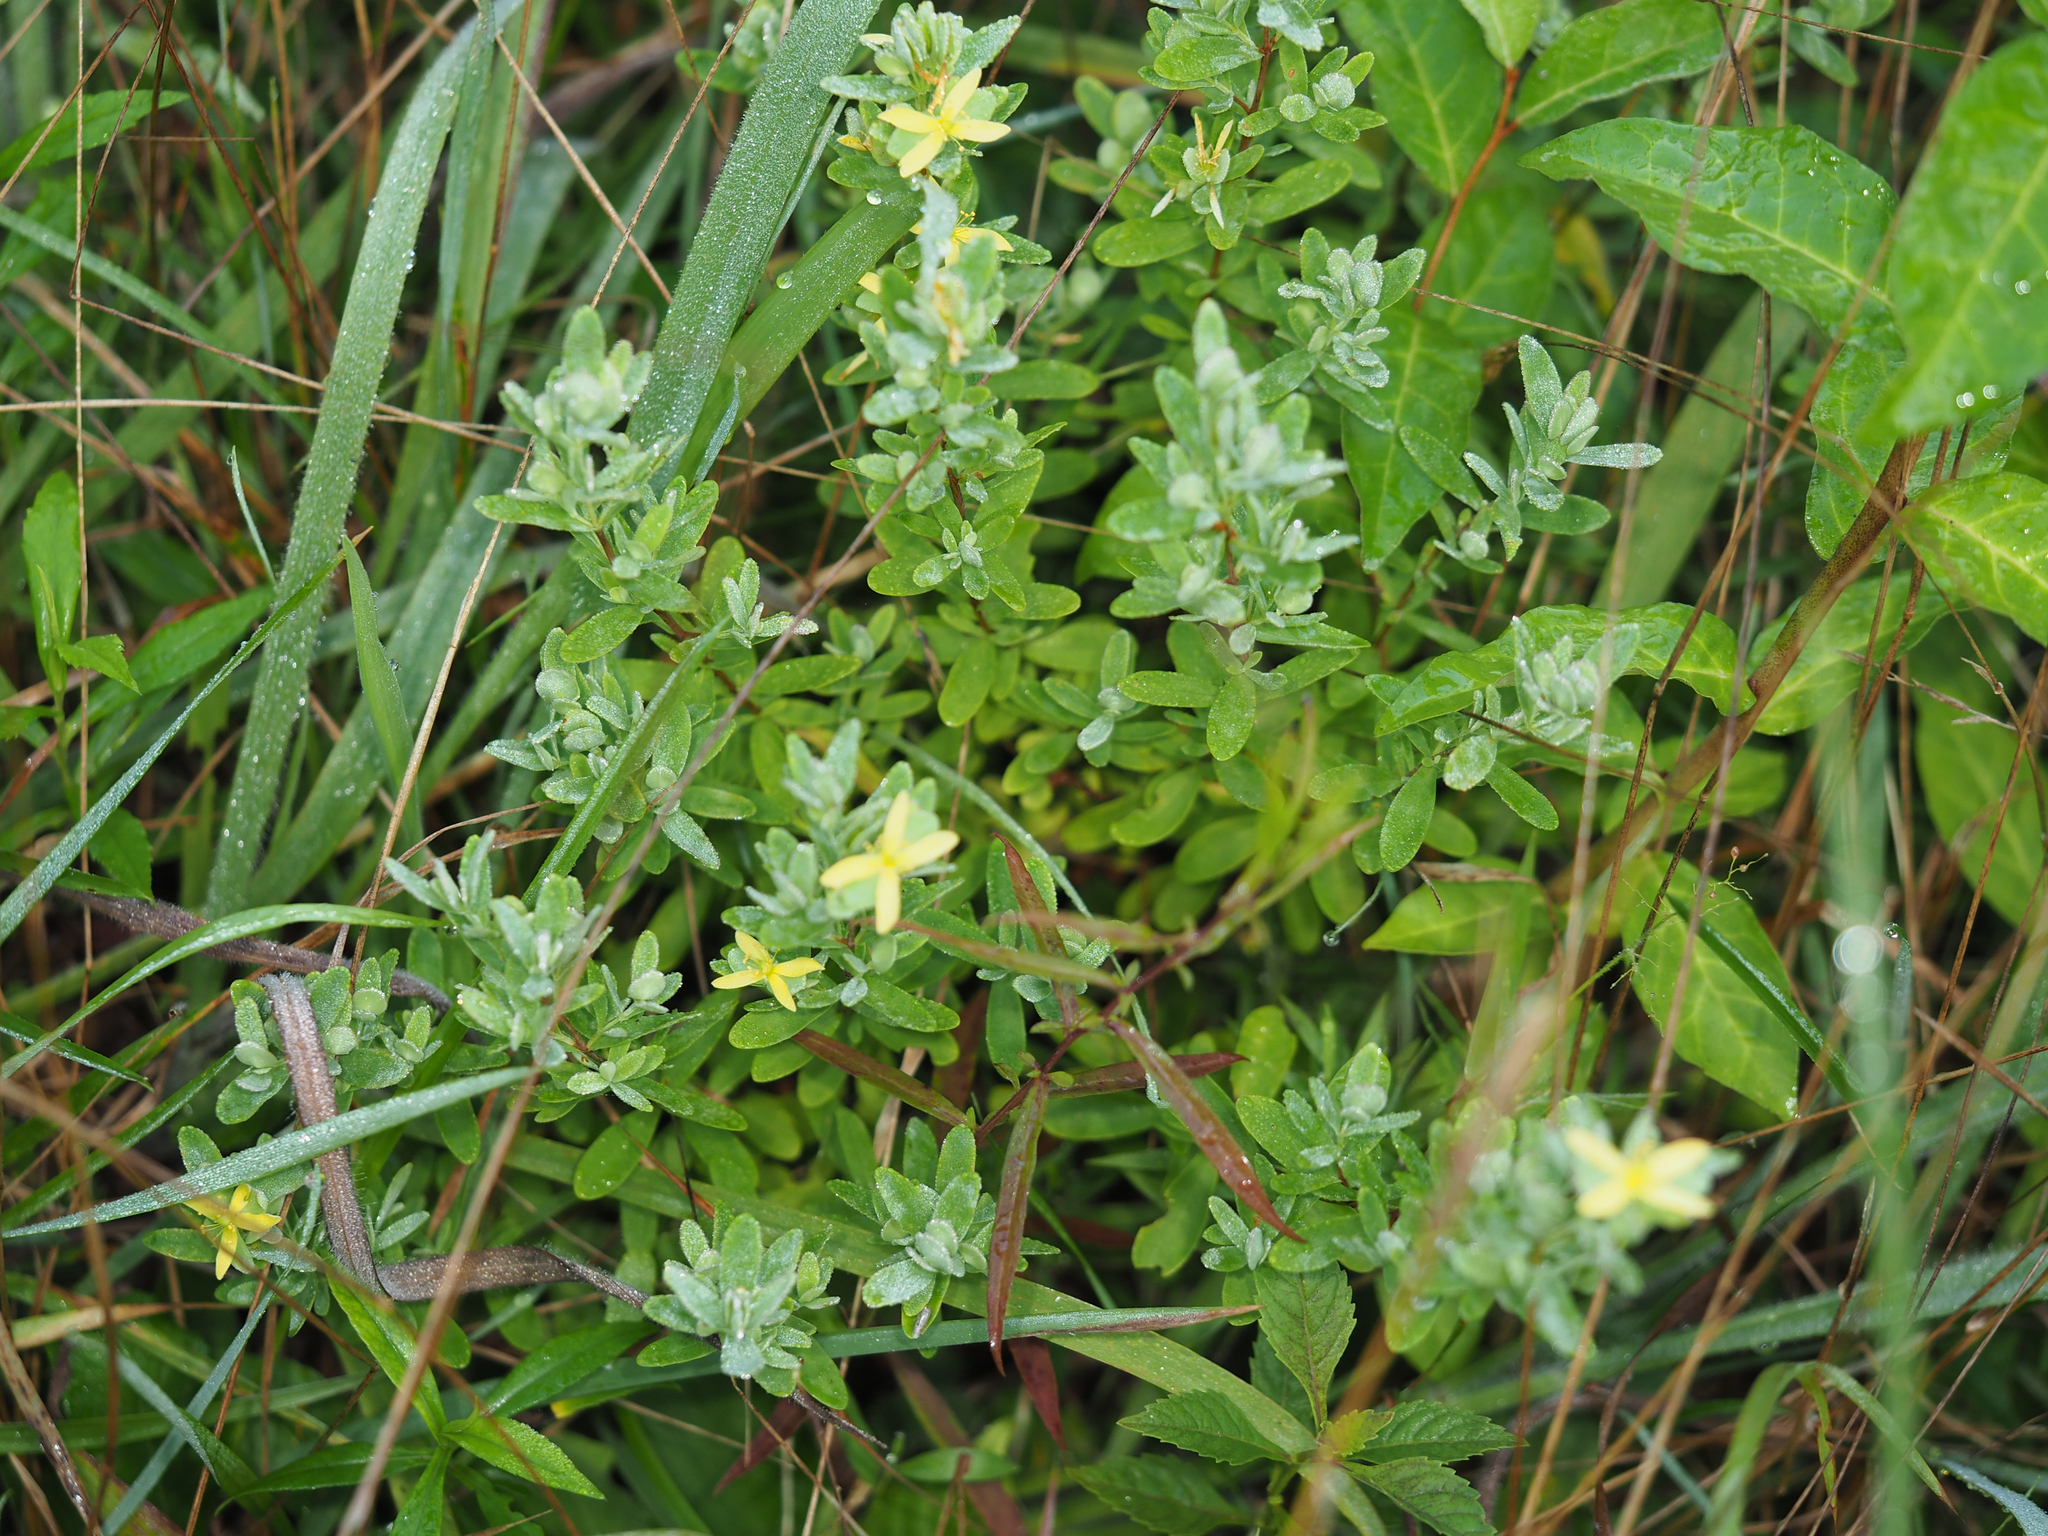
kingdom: Plantae
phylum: Tracheophyta
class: Magnoliopsida
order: Malpighiales
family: Hypericaceae
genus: Hypericum
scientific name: Hypericum hypericoides
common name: St. andrew's cross
